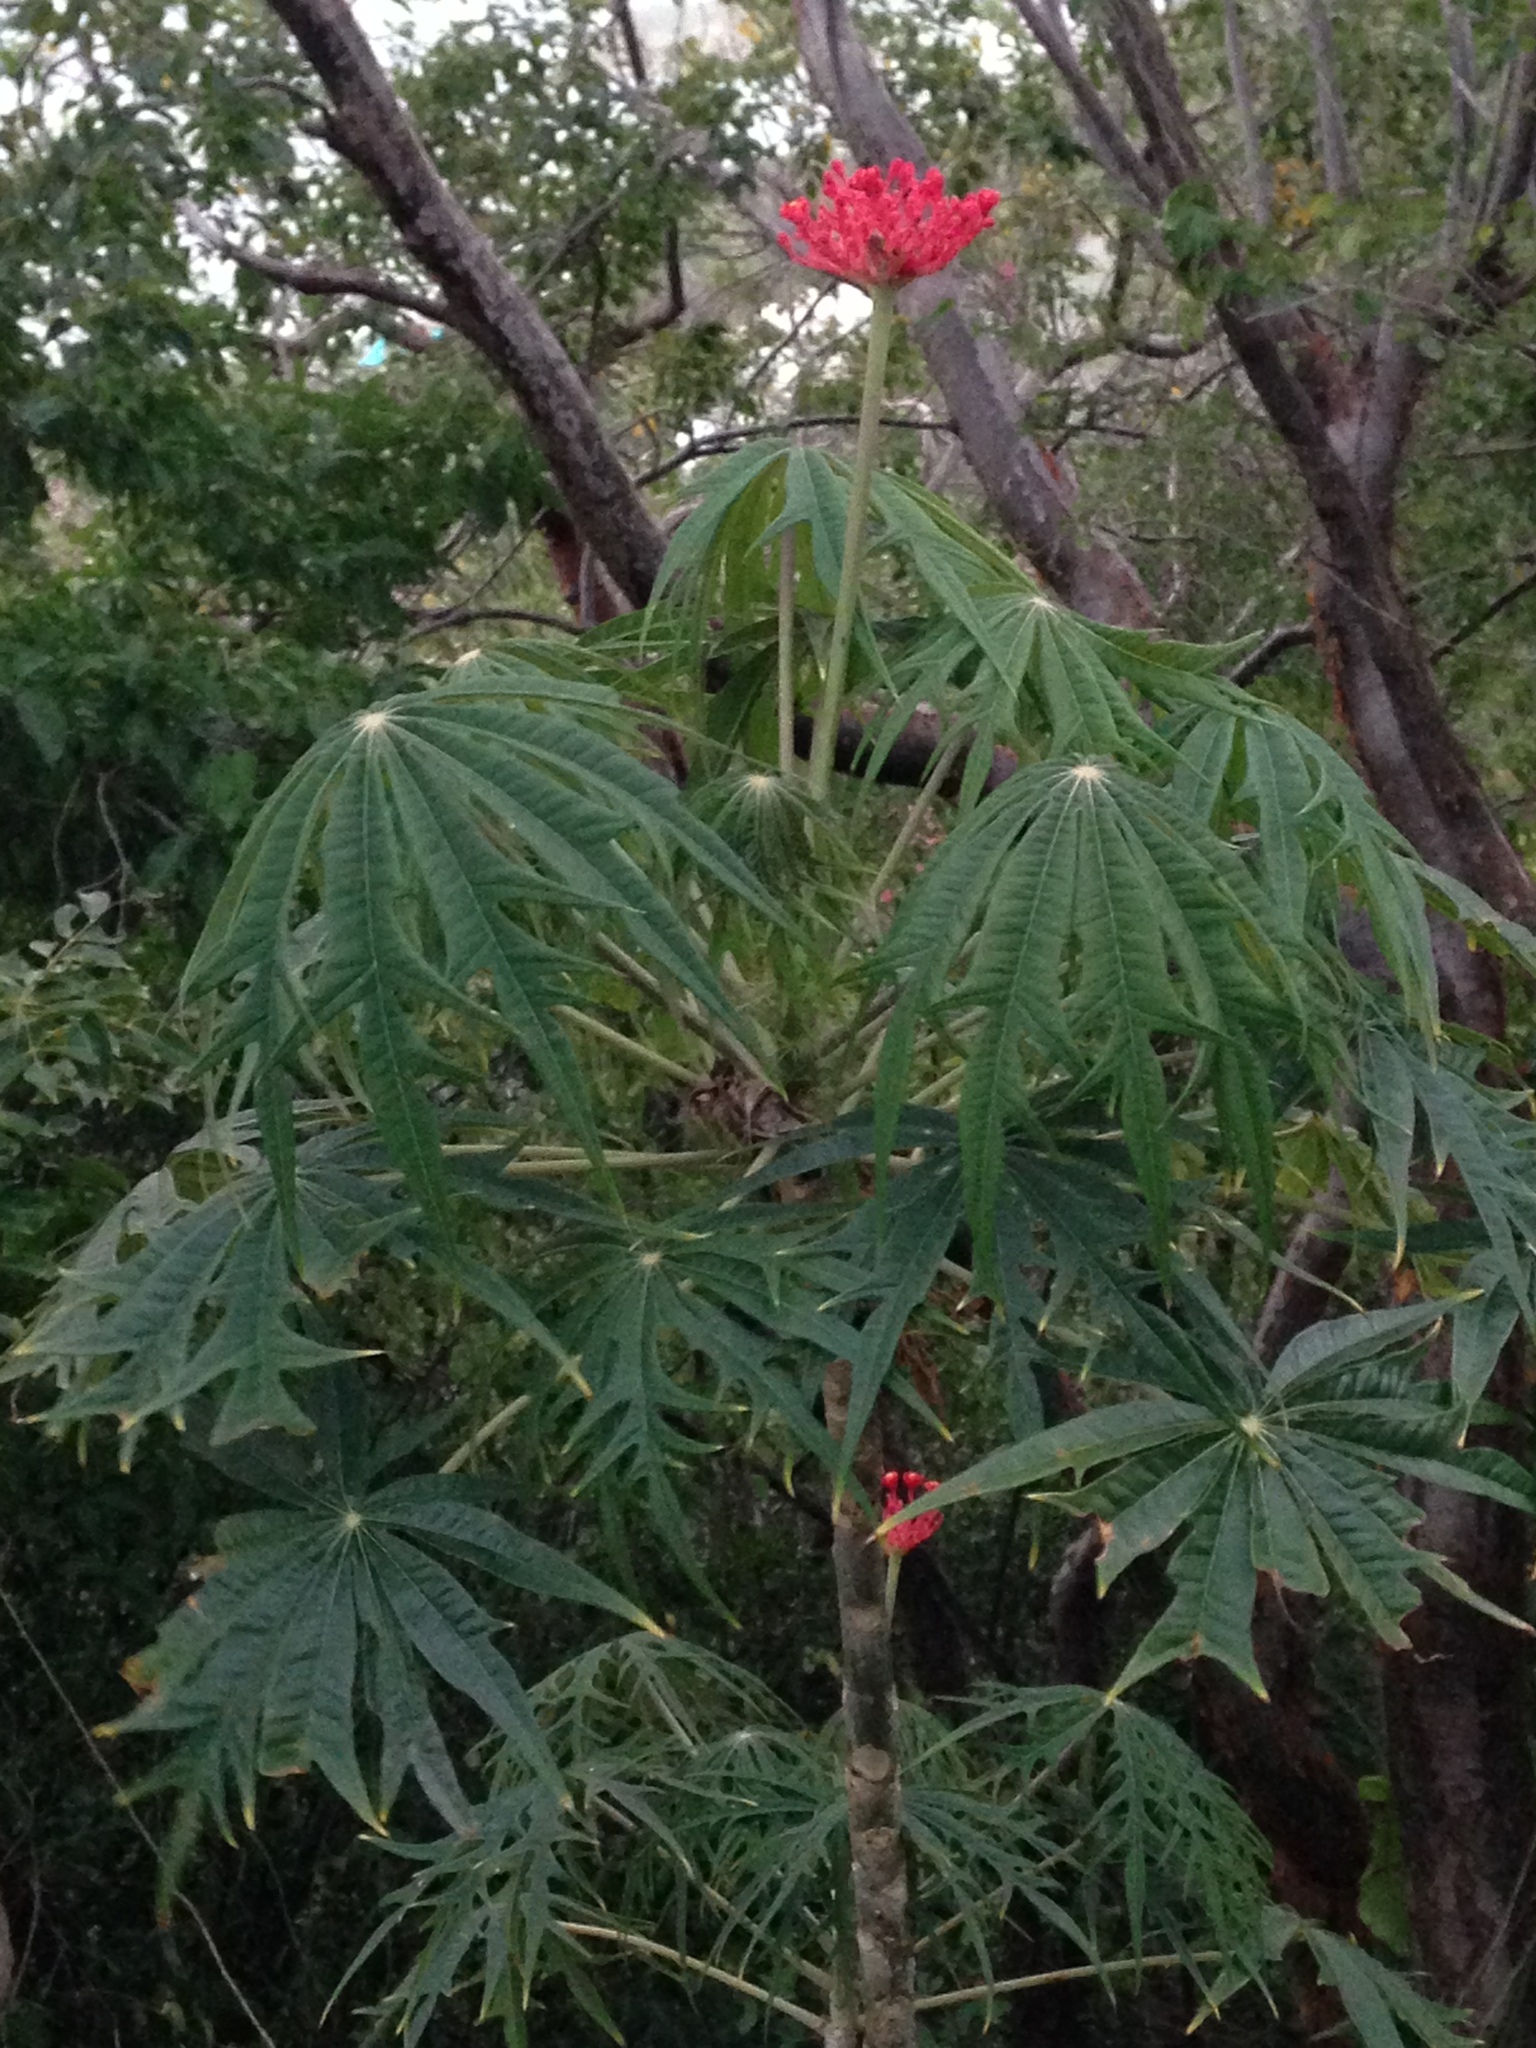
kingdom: Plantae
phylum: Tracheophyta
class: Magnoliopsida
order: Malpighiales
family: Euphorbiaceae
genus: Jatropha
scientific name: Jatropha multifida
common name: Coralbush
